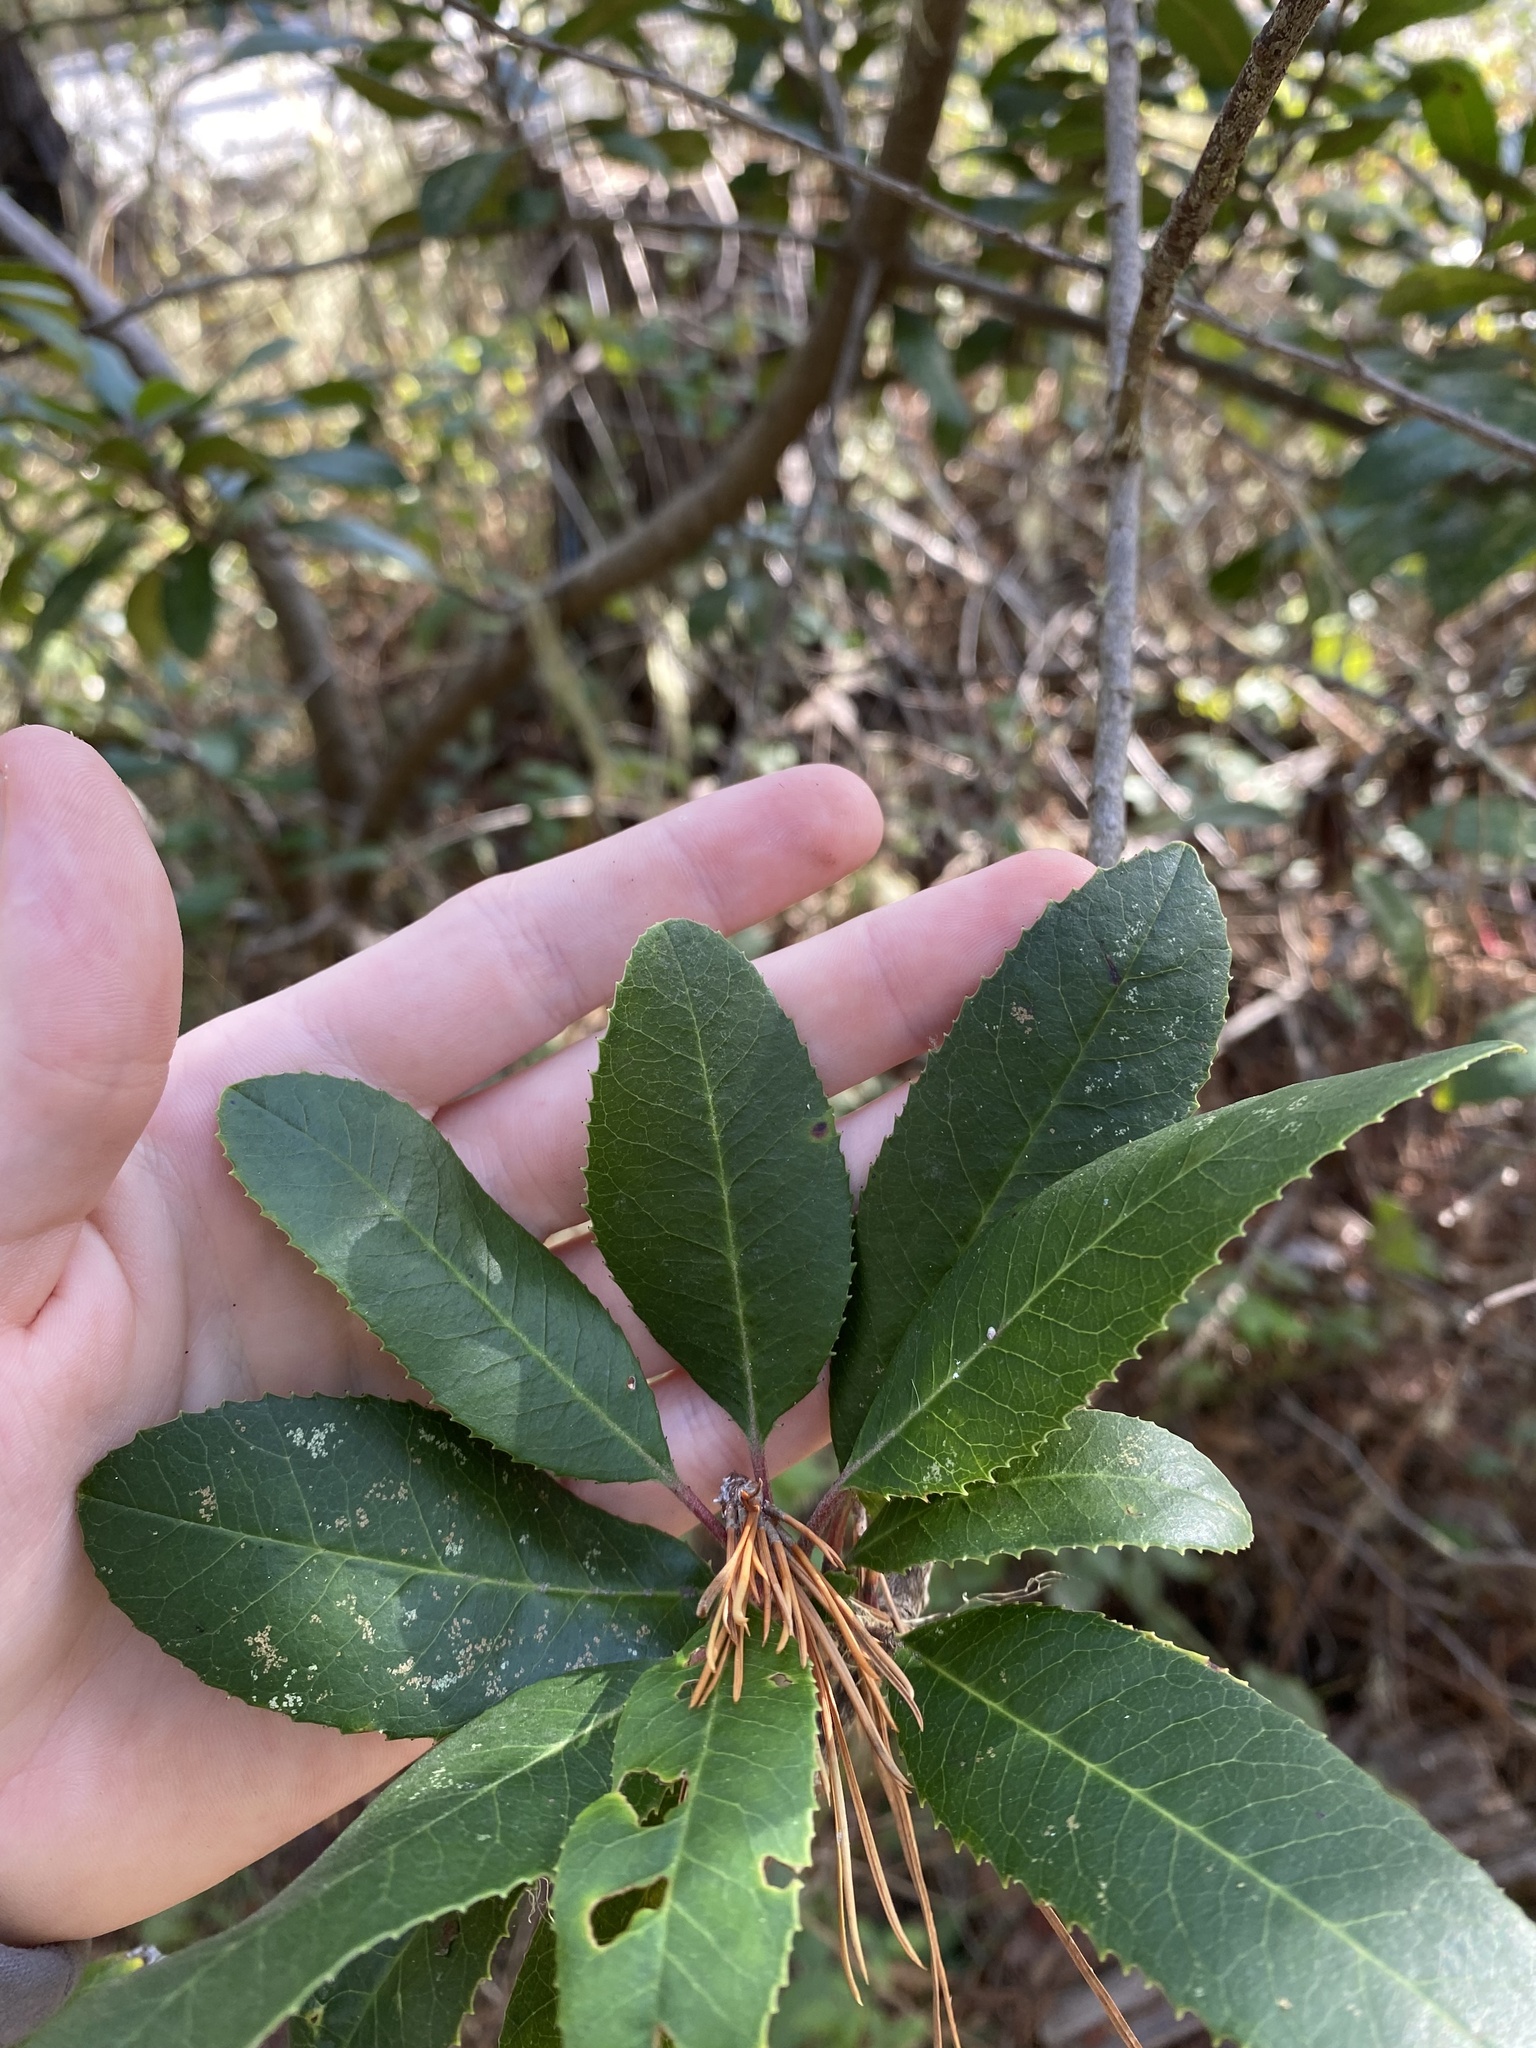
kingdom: Plantae
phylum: Tracheophyta
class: Magnoliopsida
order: Rosales
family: Rosaceae
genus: Heteromeles
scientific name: Heteromeles arbutifolia
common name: California-holly
